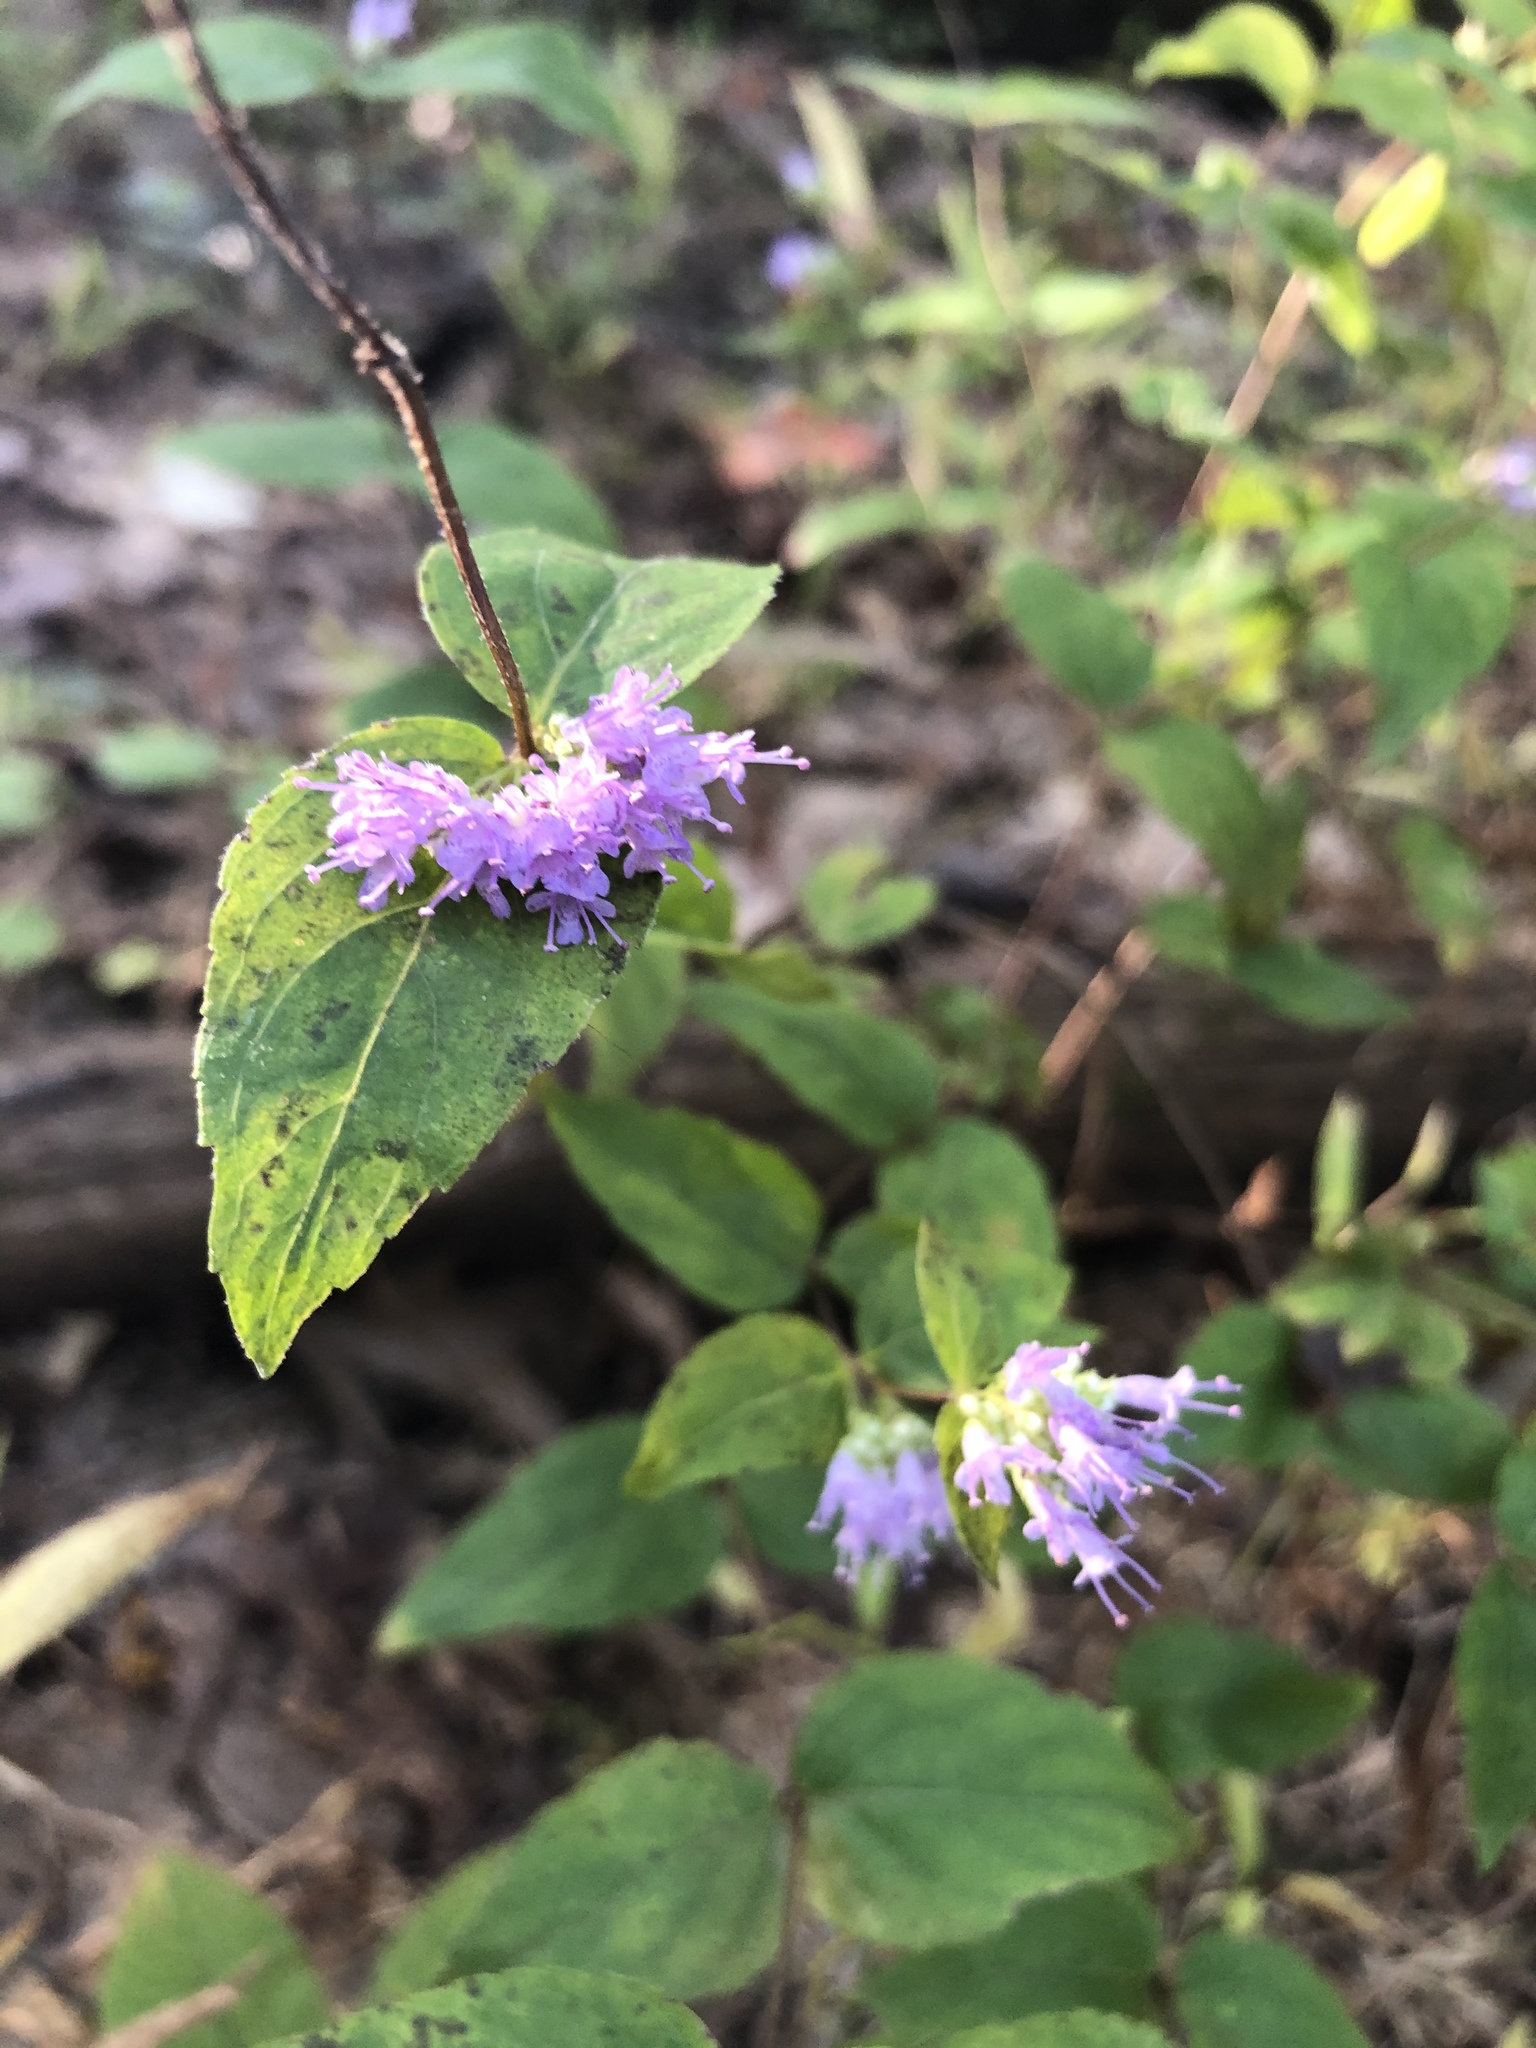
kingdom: Plantae
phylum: Tracheophyta
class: Magnoliopsida
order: Lamiales
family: Lamiaceae
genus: Cunila
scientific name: Cunila origanoides
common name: American dittany
